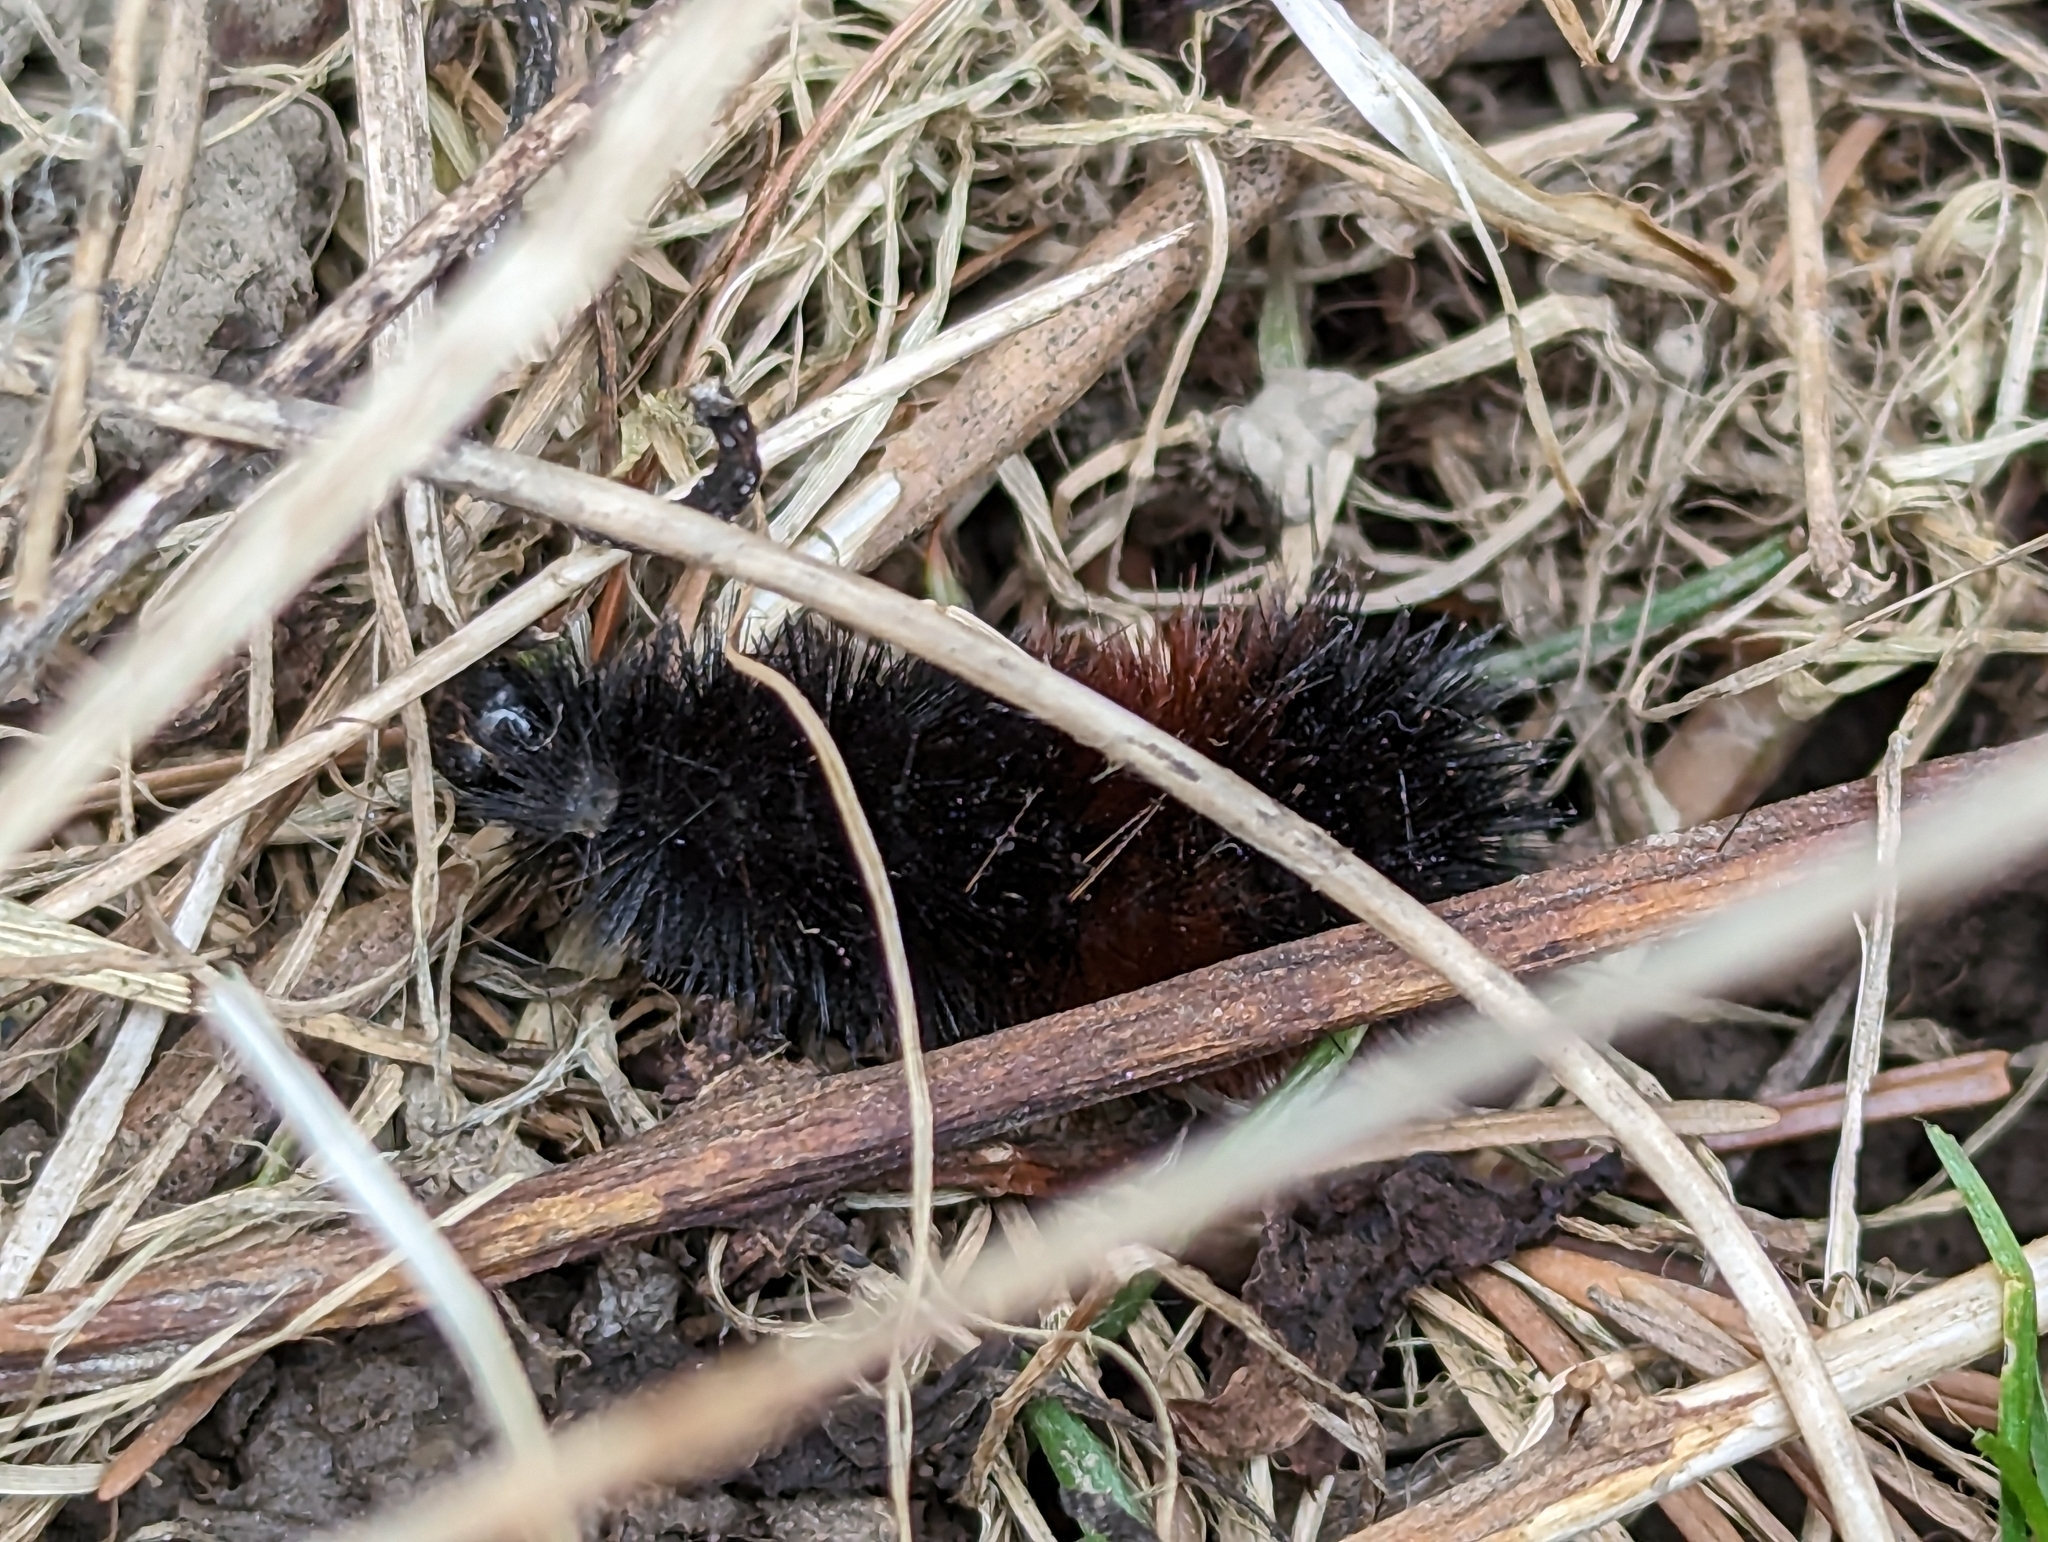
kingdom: Animalia
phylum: Arthropoda
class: Insecta
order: Lepidoptera
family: Erebidae
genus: Pyrrharctia
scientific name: Pyrrharctia isabella
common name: Isabella tiger moth
